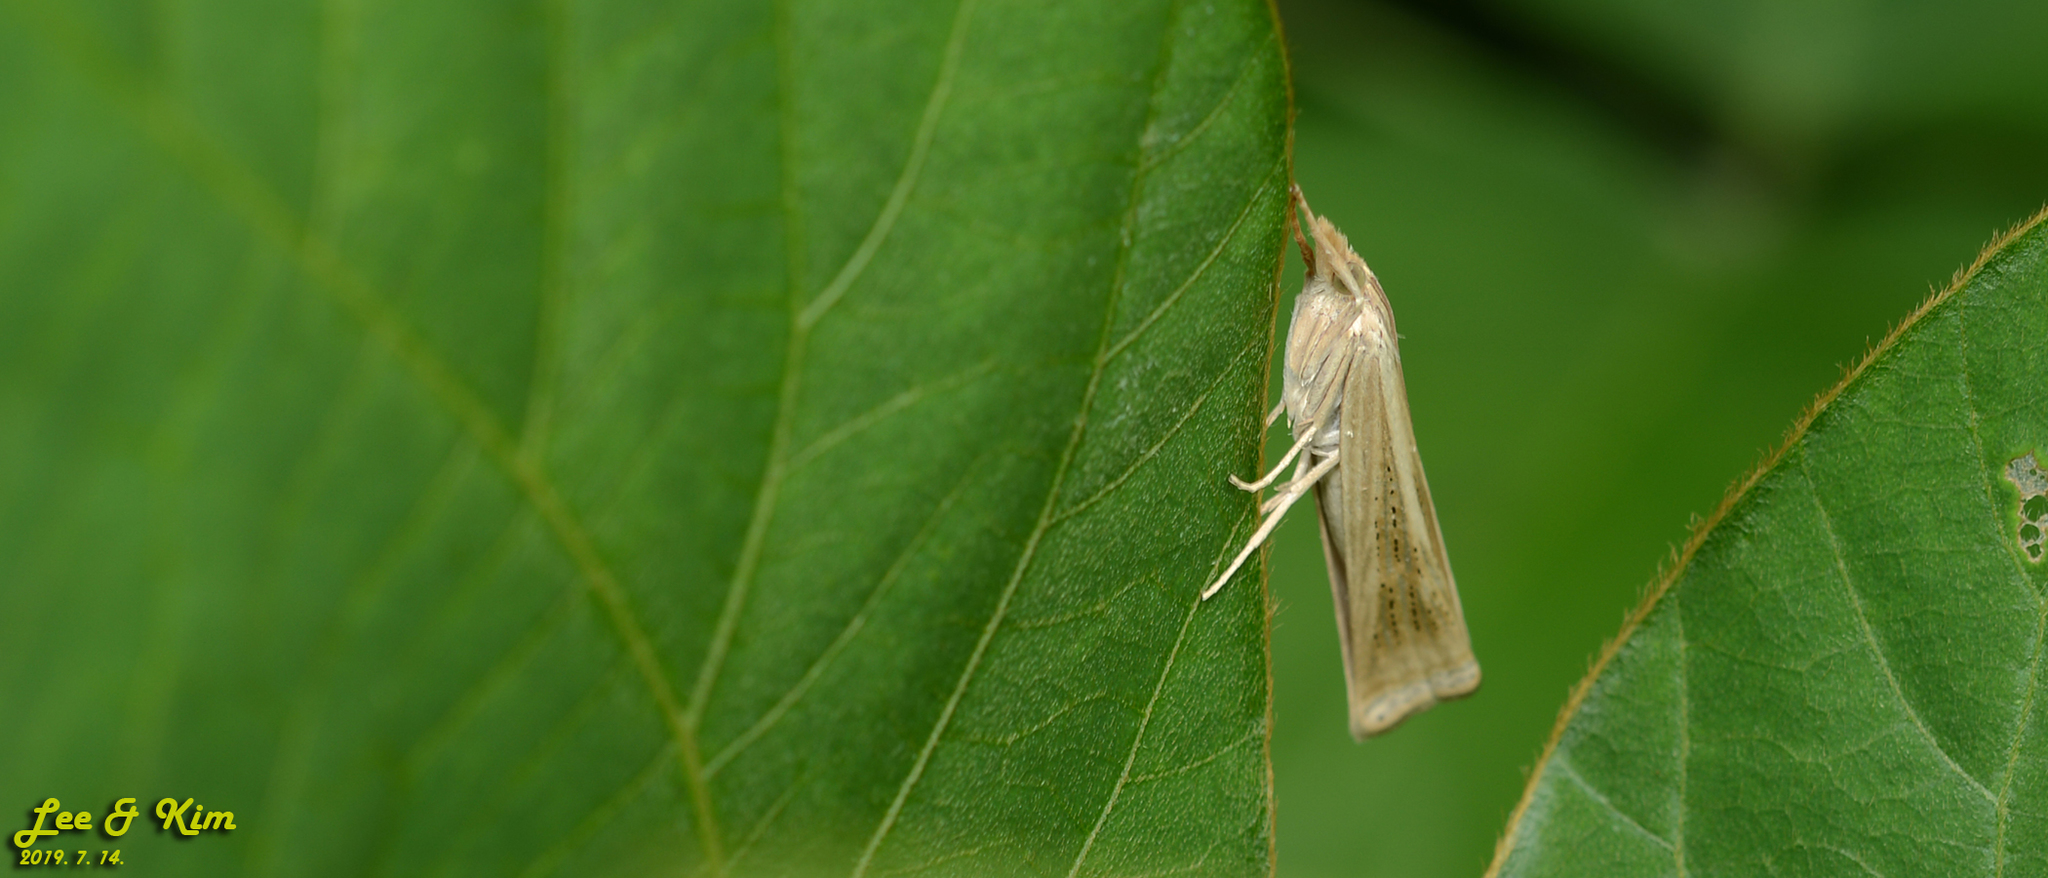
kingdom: Animalia
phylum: Arthropoda
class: Insecta
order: Lepidoptera
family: Crambidae
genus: Ancylolomia
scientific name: Ancylolomia japonica
